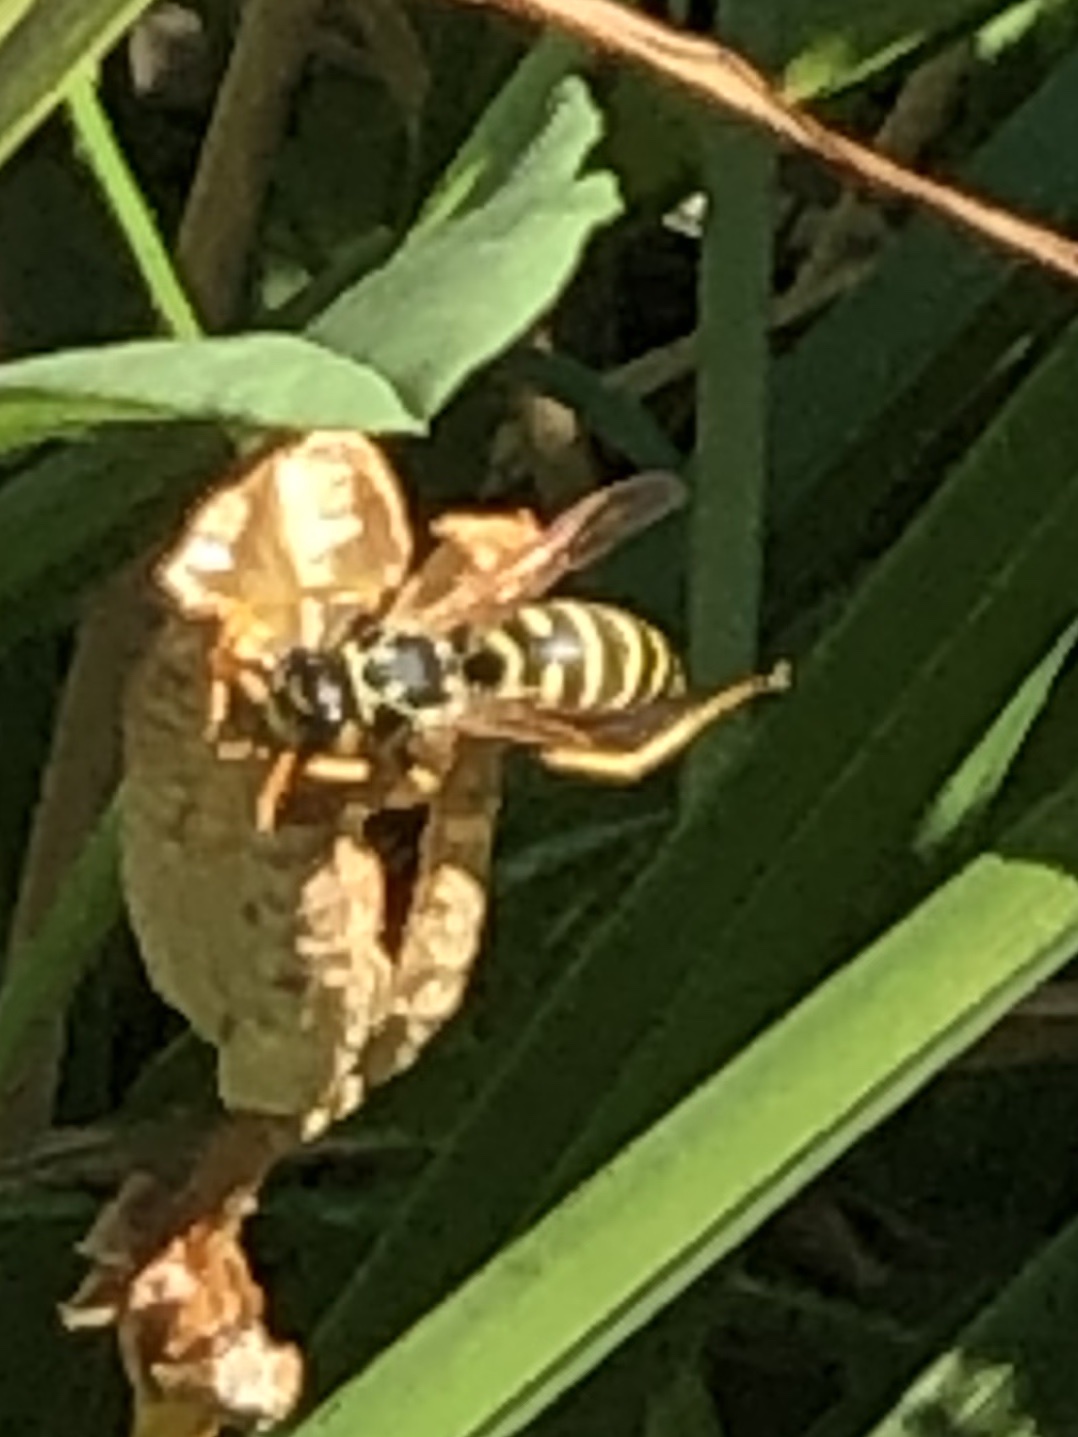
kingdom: Animalia
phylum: Arthropoda
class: Insecta
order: Hymenoptera
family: Eumenidae
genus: Polistes
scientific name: Polistes dominula
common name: Paper wasp
